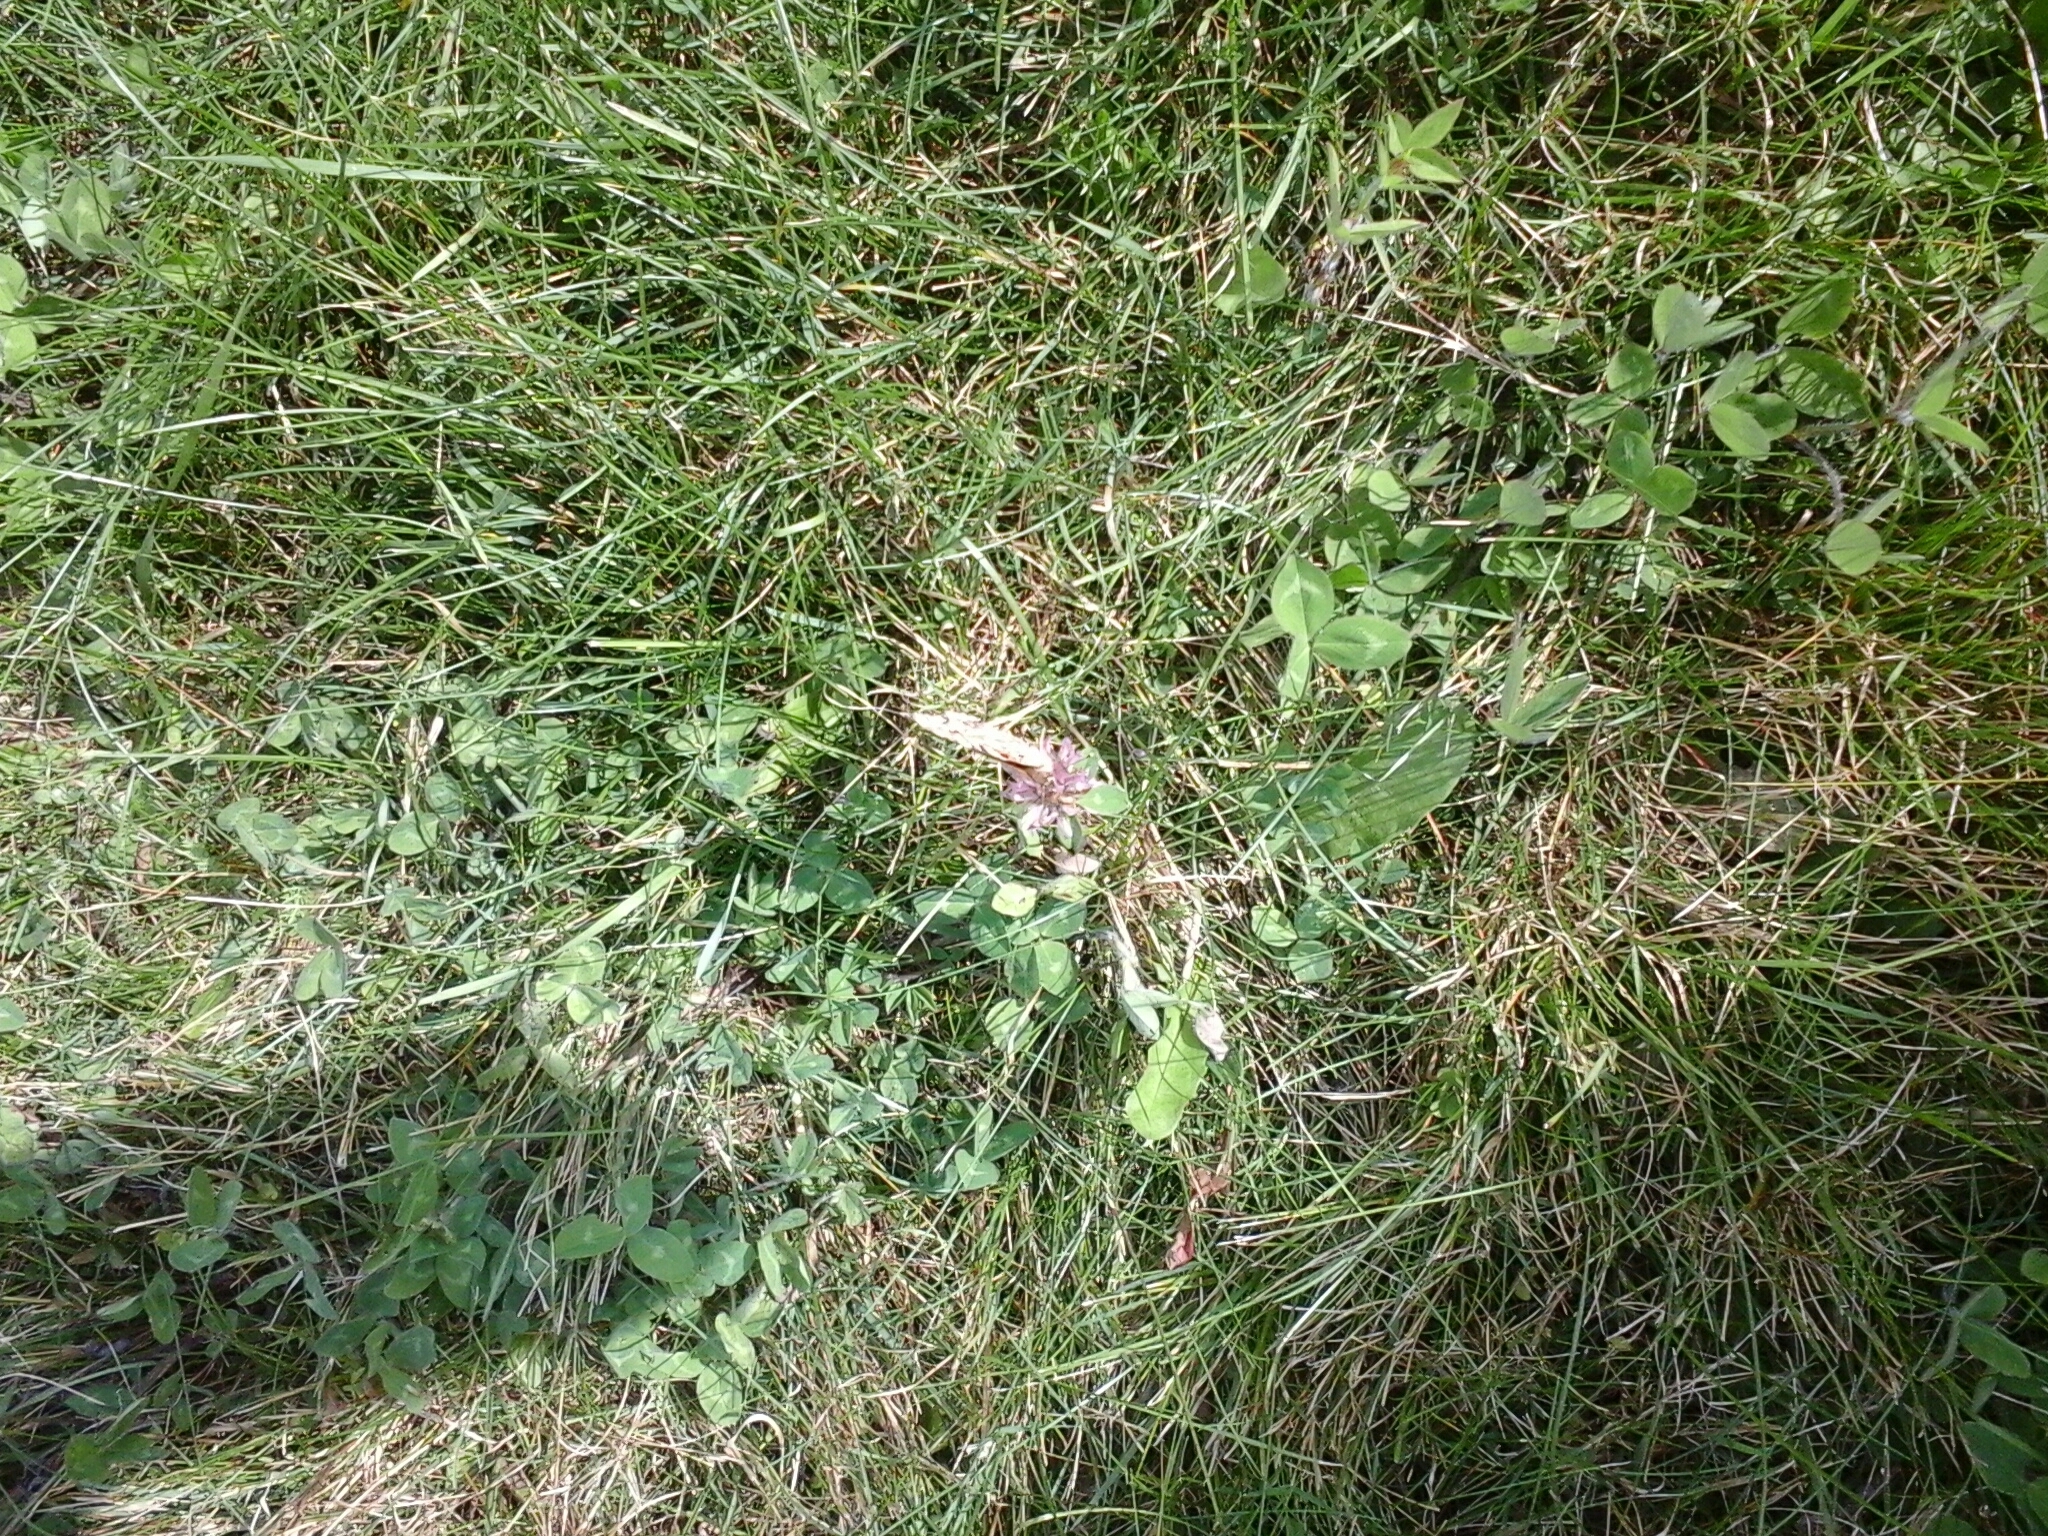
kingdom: Animalia
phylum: Arthropoda
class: Insecta
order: Lepidoptera
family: Nymphalidae
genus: Vanessa
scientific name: Vanessa cardui
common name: Painted lady
